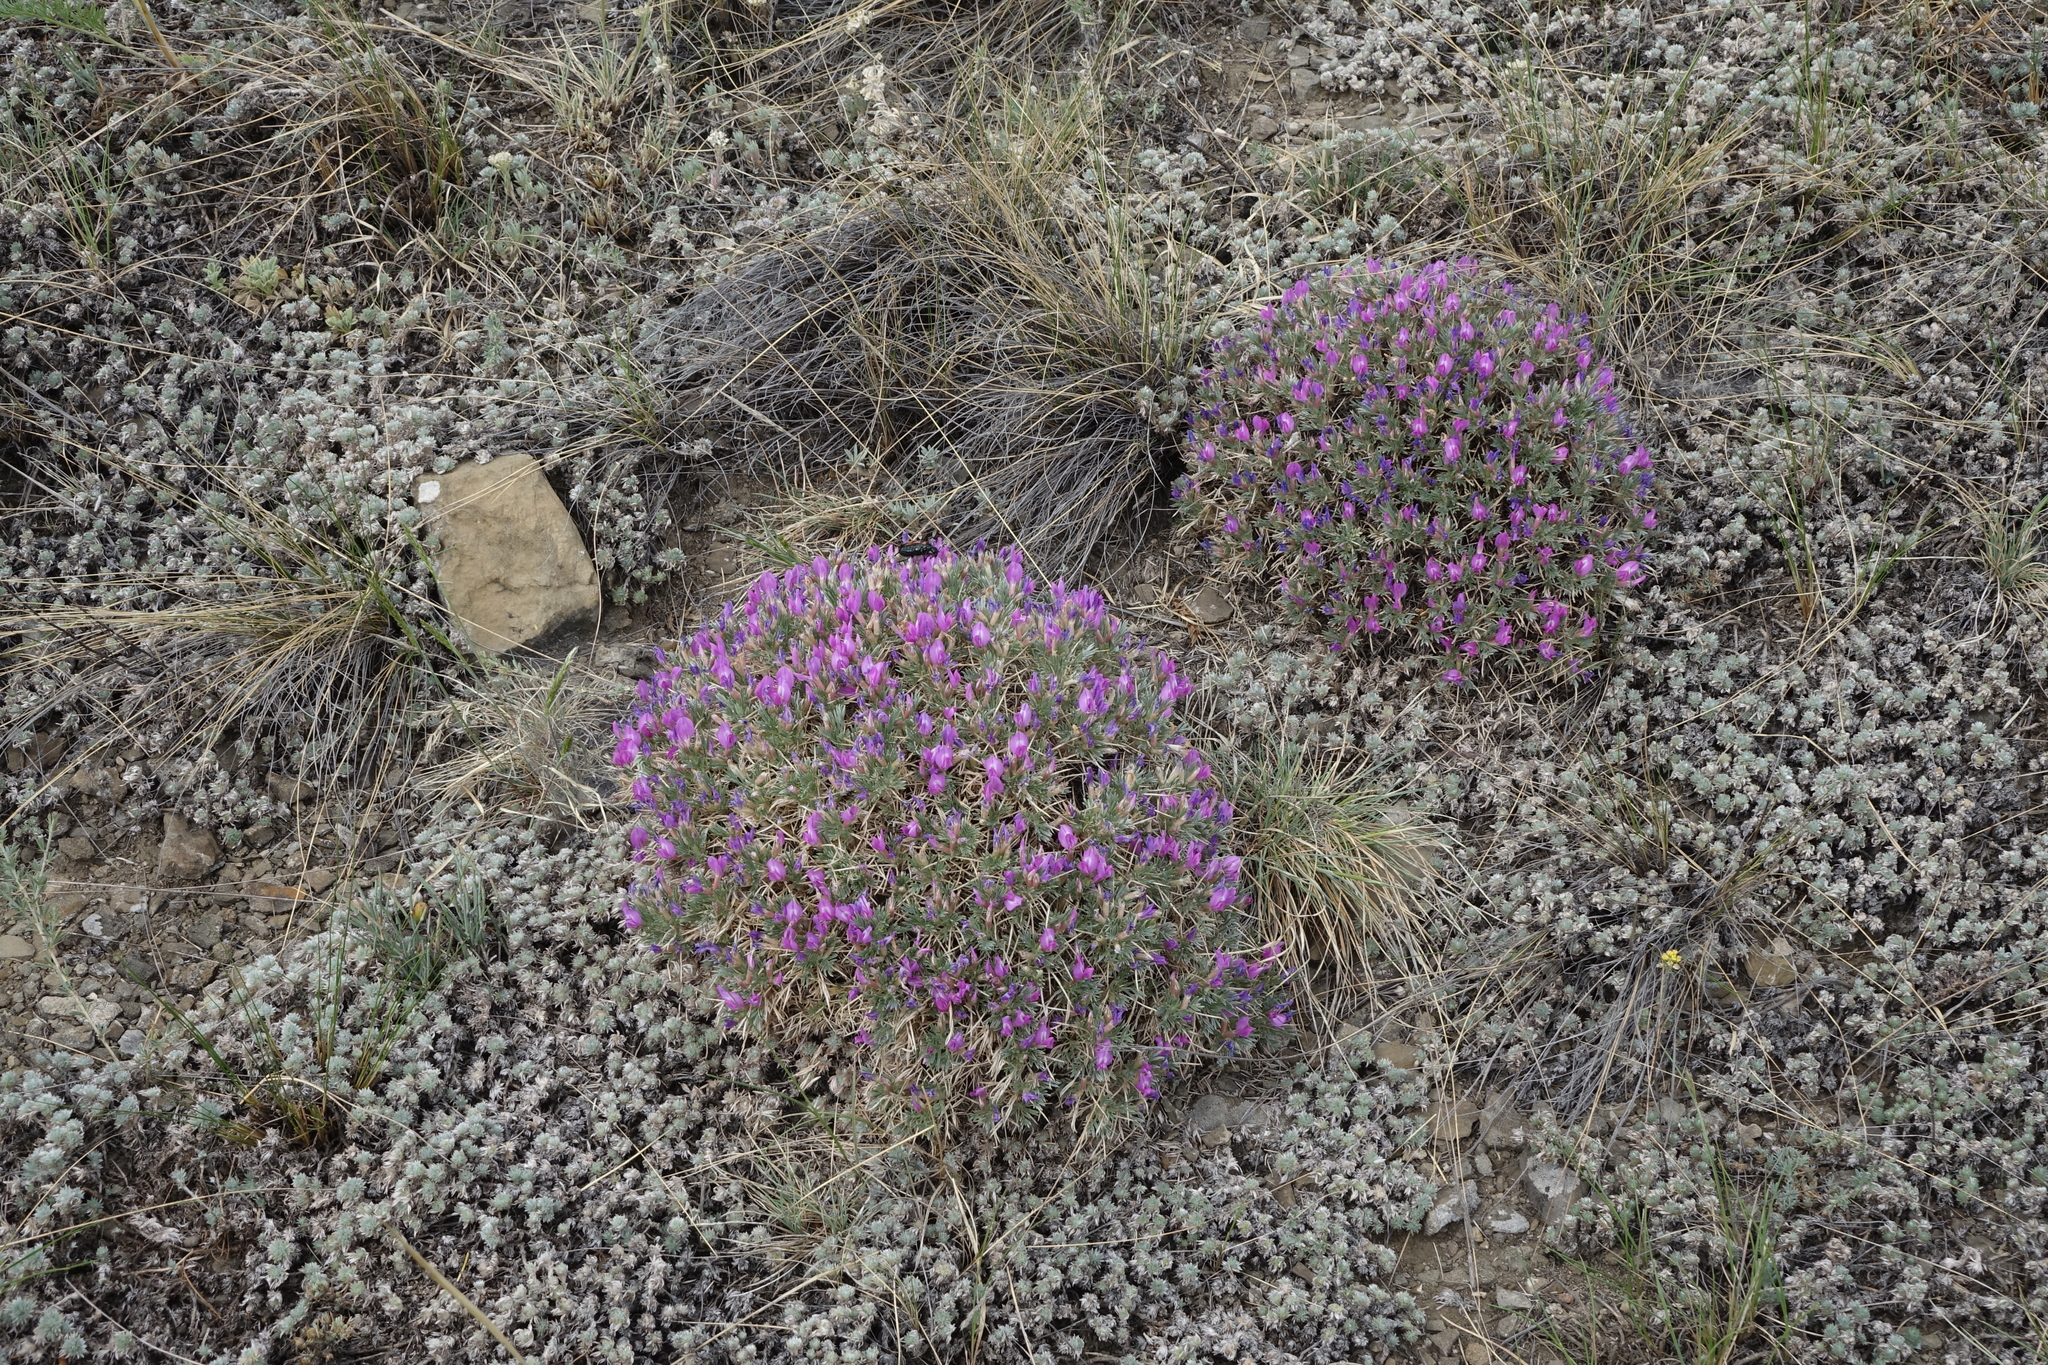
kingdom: Plantae
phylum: Tracheophyta
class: Magnoliopsida
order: Fabales
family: Fabaceae
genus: Oxytropis
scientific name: Oxytropis borissoviae
